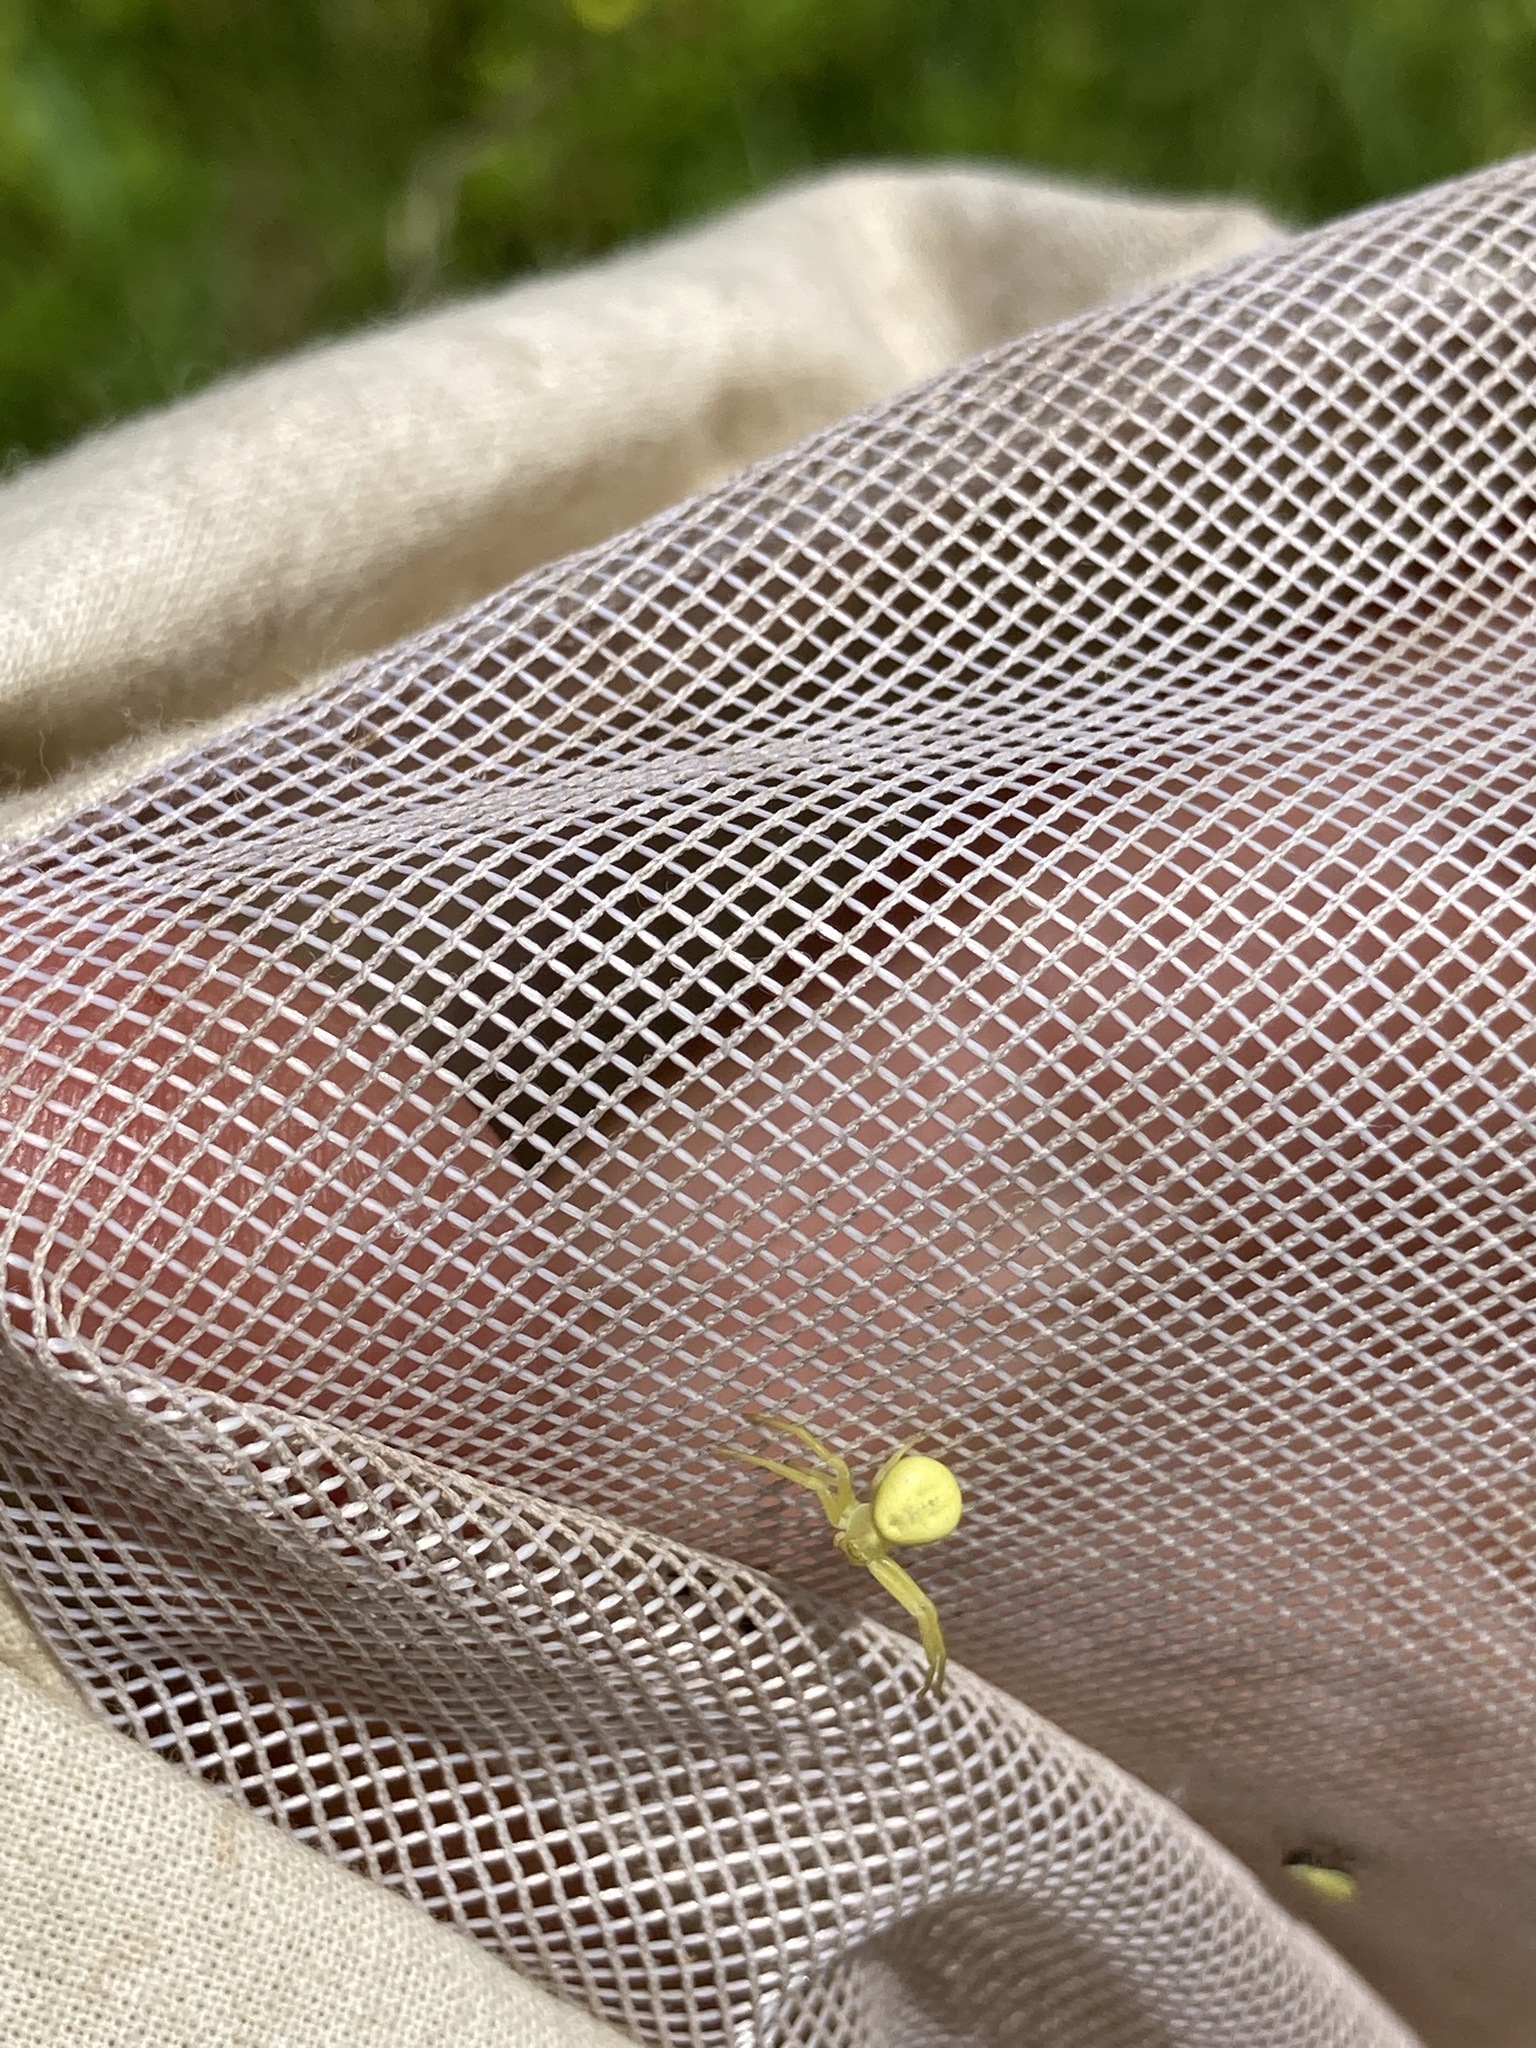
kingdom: Animalia
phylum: Arthropoda
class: Arachnida
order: Araneae
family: Thomisidae
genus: Misumena
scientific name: Misumena vatia
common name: Goldenrod crab spider
